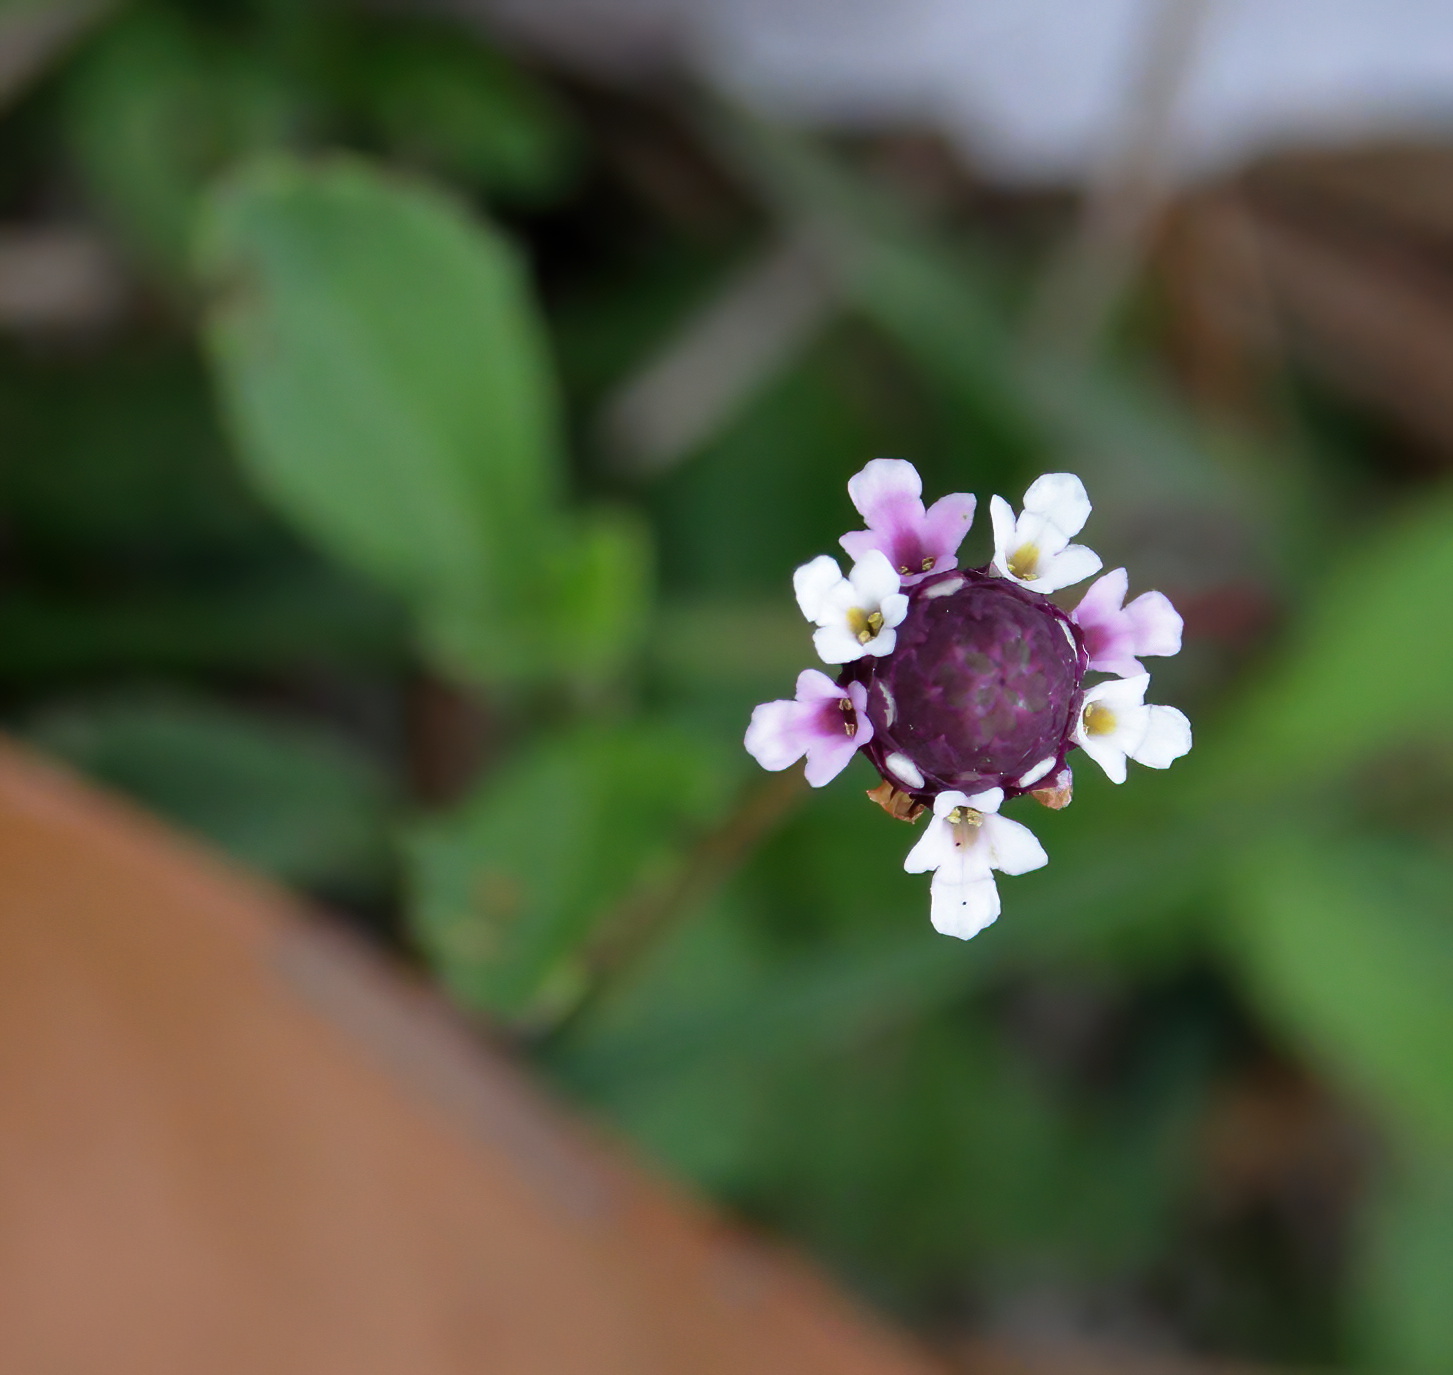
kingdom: Plantae
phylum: Tracheophyta
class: Magnoliopsida
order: Lamiales
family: Verbenaceae
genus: Phyla
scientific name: Phyla nodiflora
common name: Frogfruit
